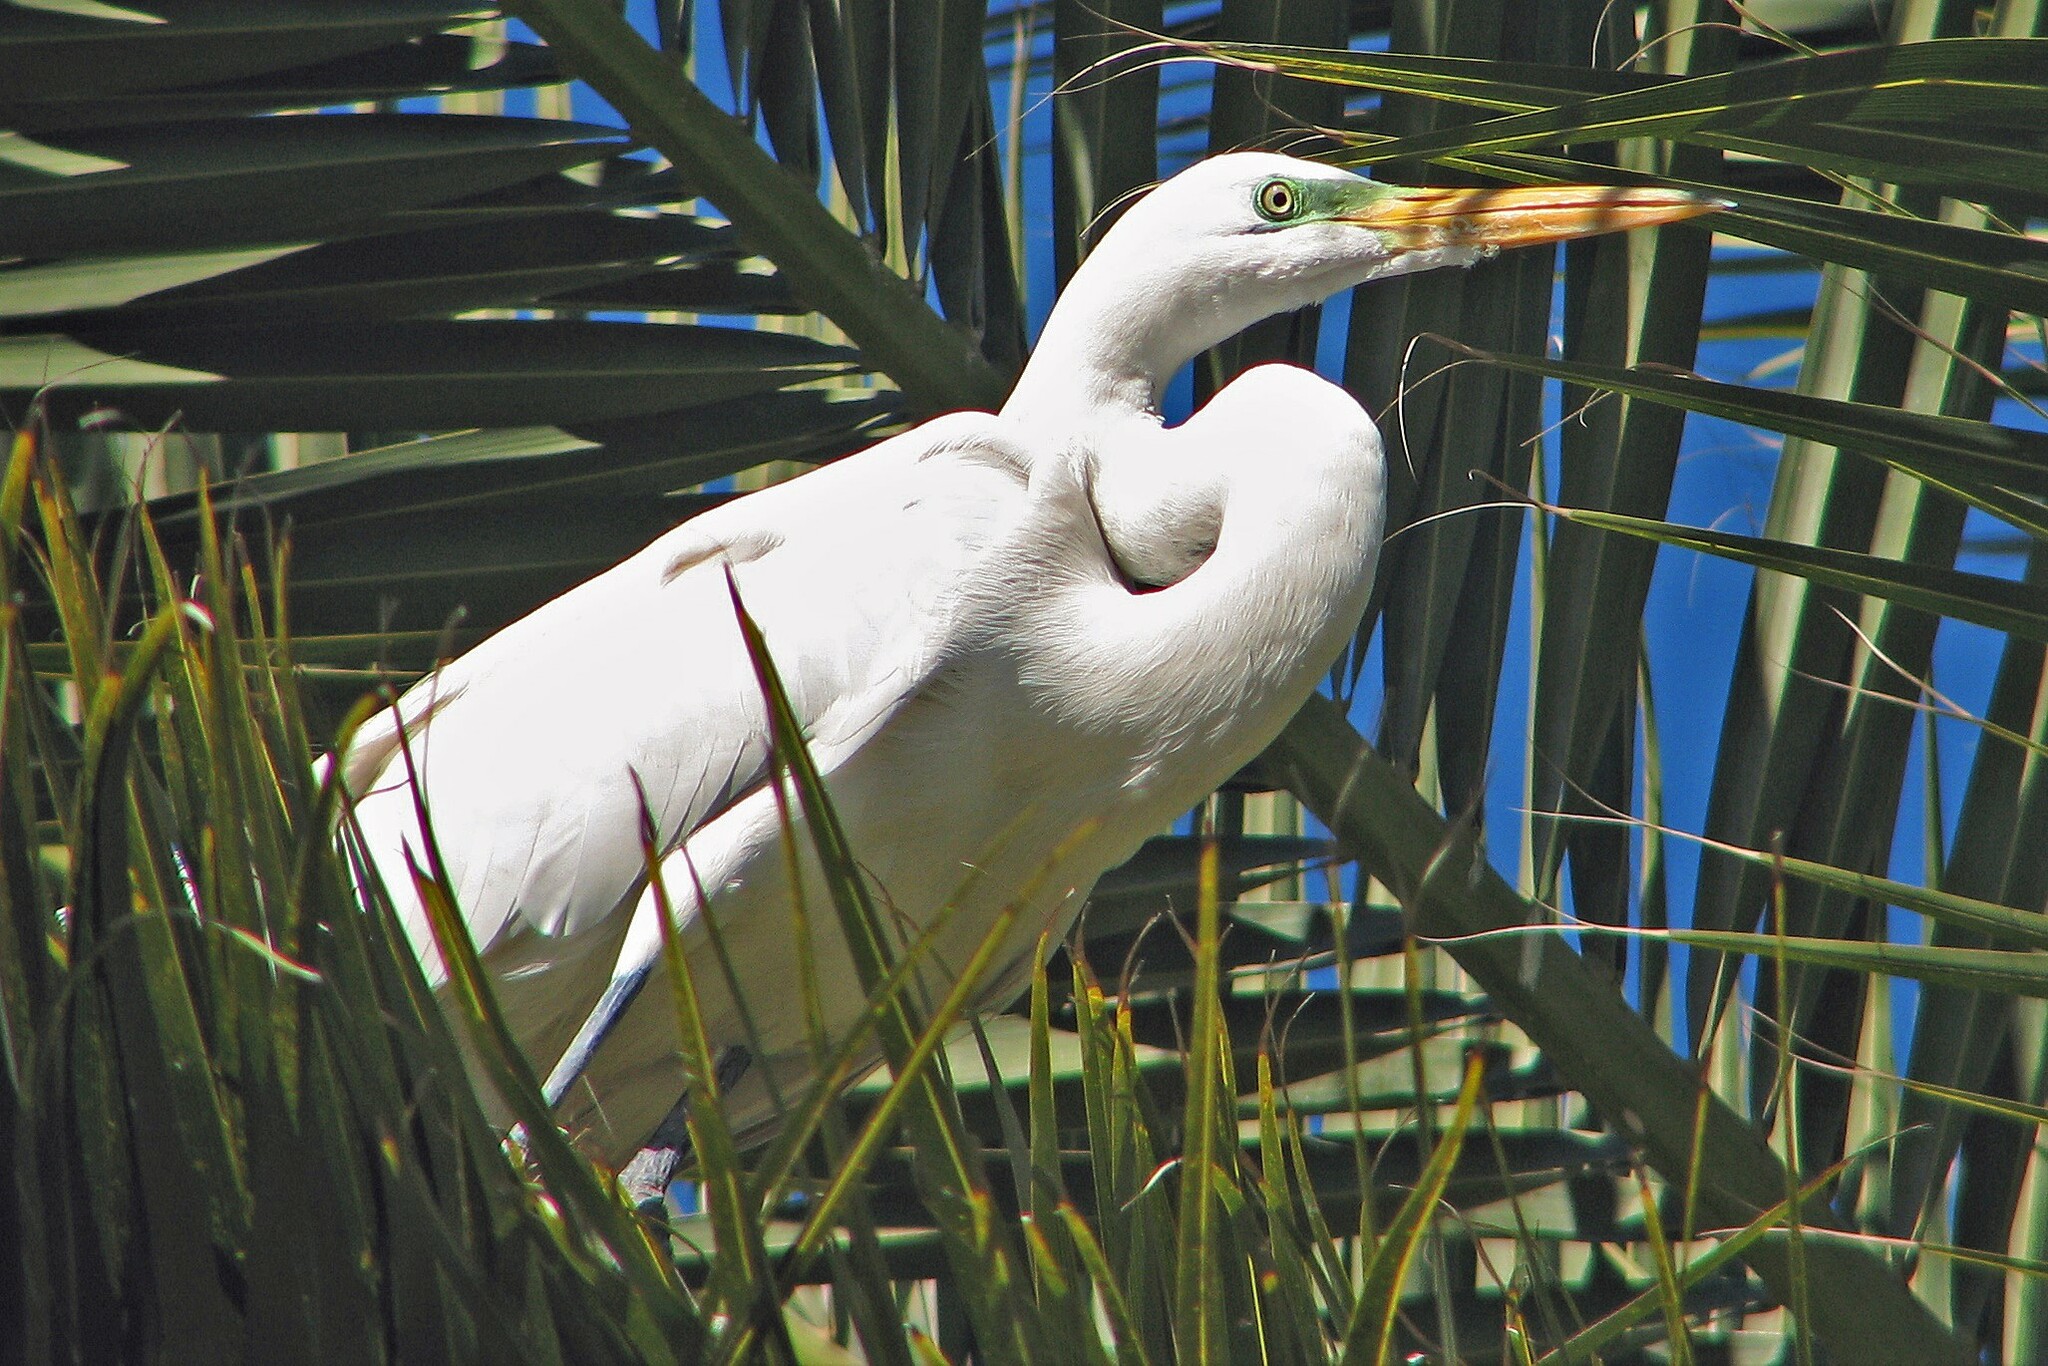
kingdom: Animalia
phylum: Chordata
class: Aves
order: Pelecaniformes
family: Ardeidae
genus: Ardea
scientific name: Ardea alba
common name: Great egret
